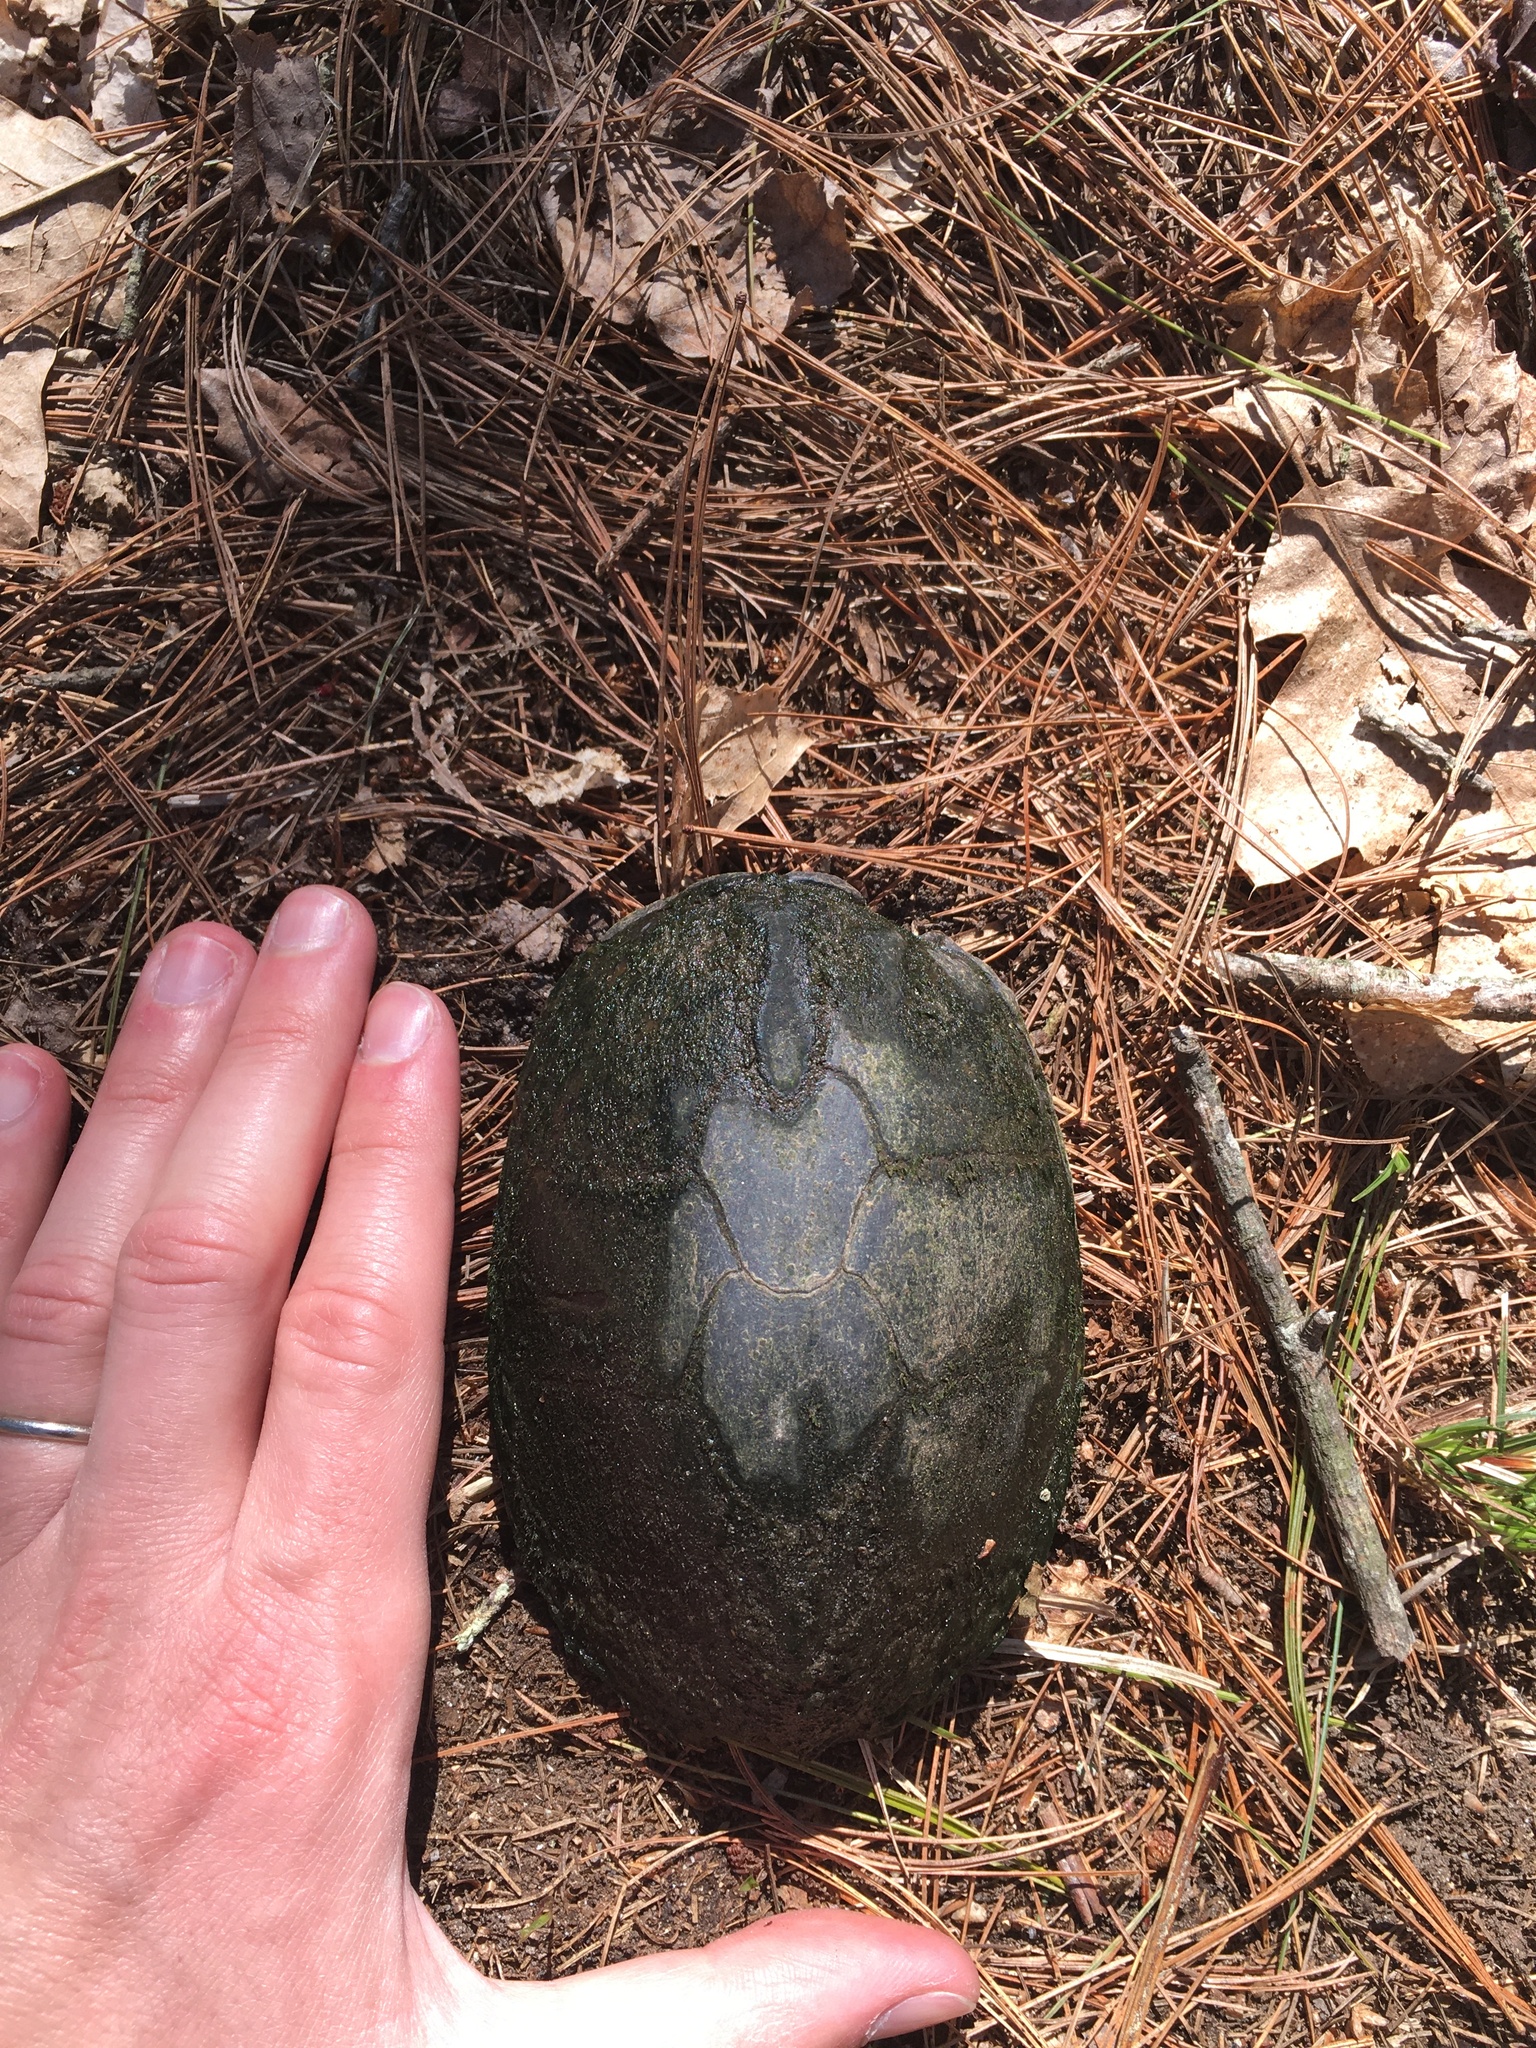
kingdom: Animalia
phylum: Chordata
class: Testudines
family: Kinosternidae
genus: Sternotherus
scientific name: Sternotherus odoratus
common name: Common musk turtle
